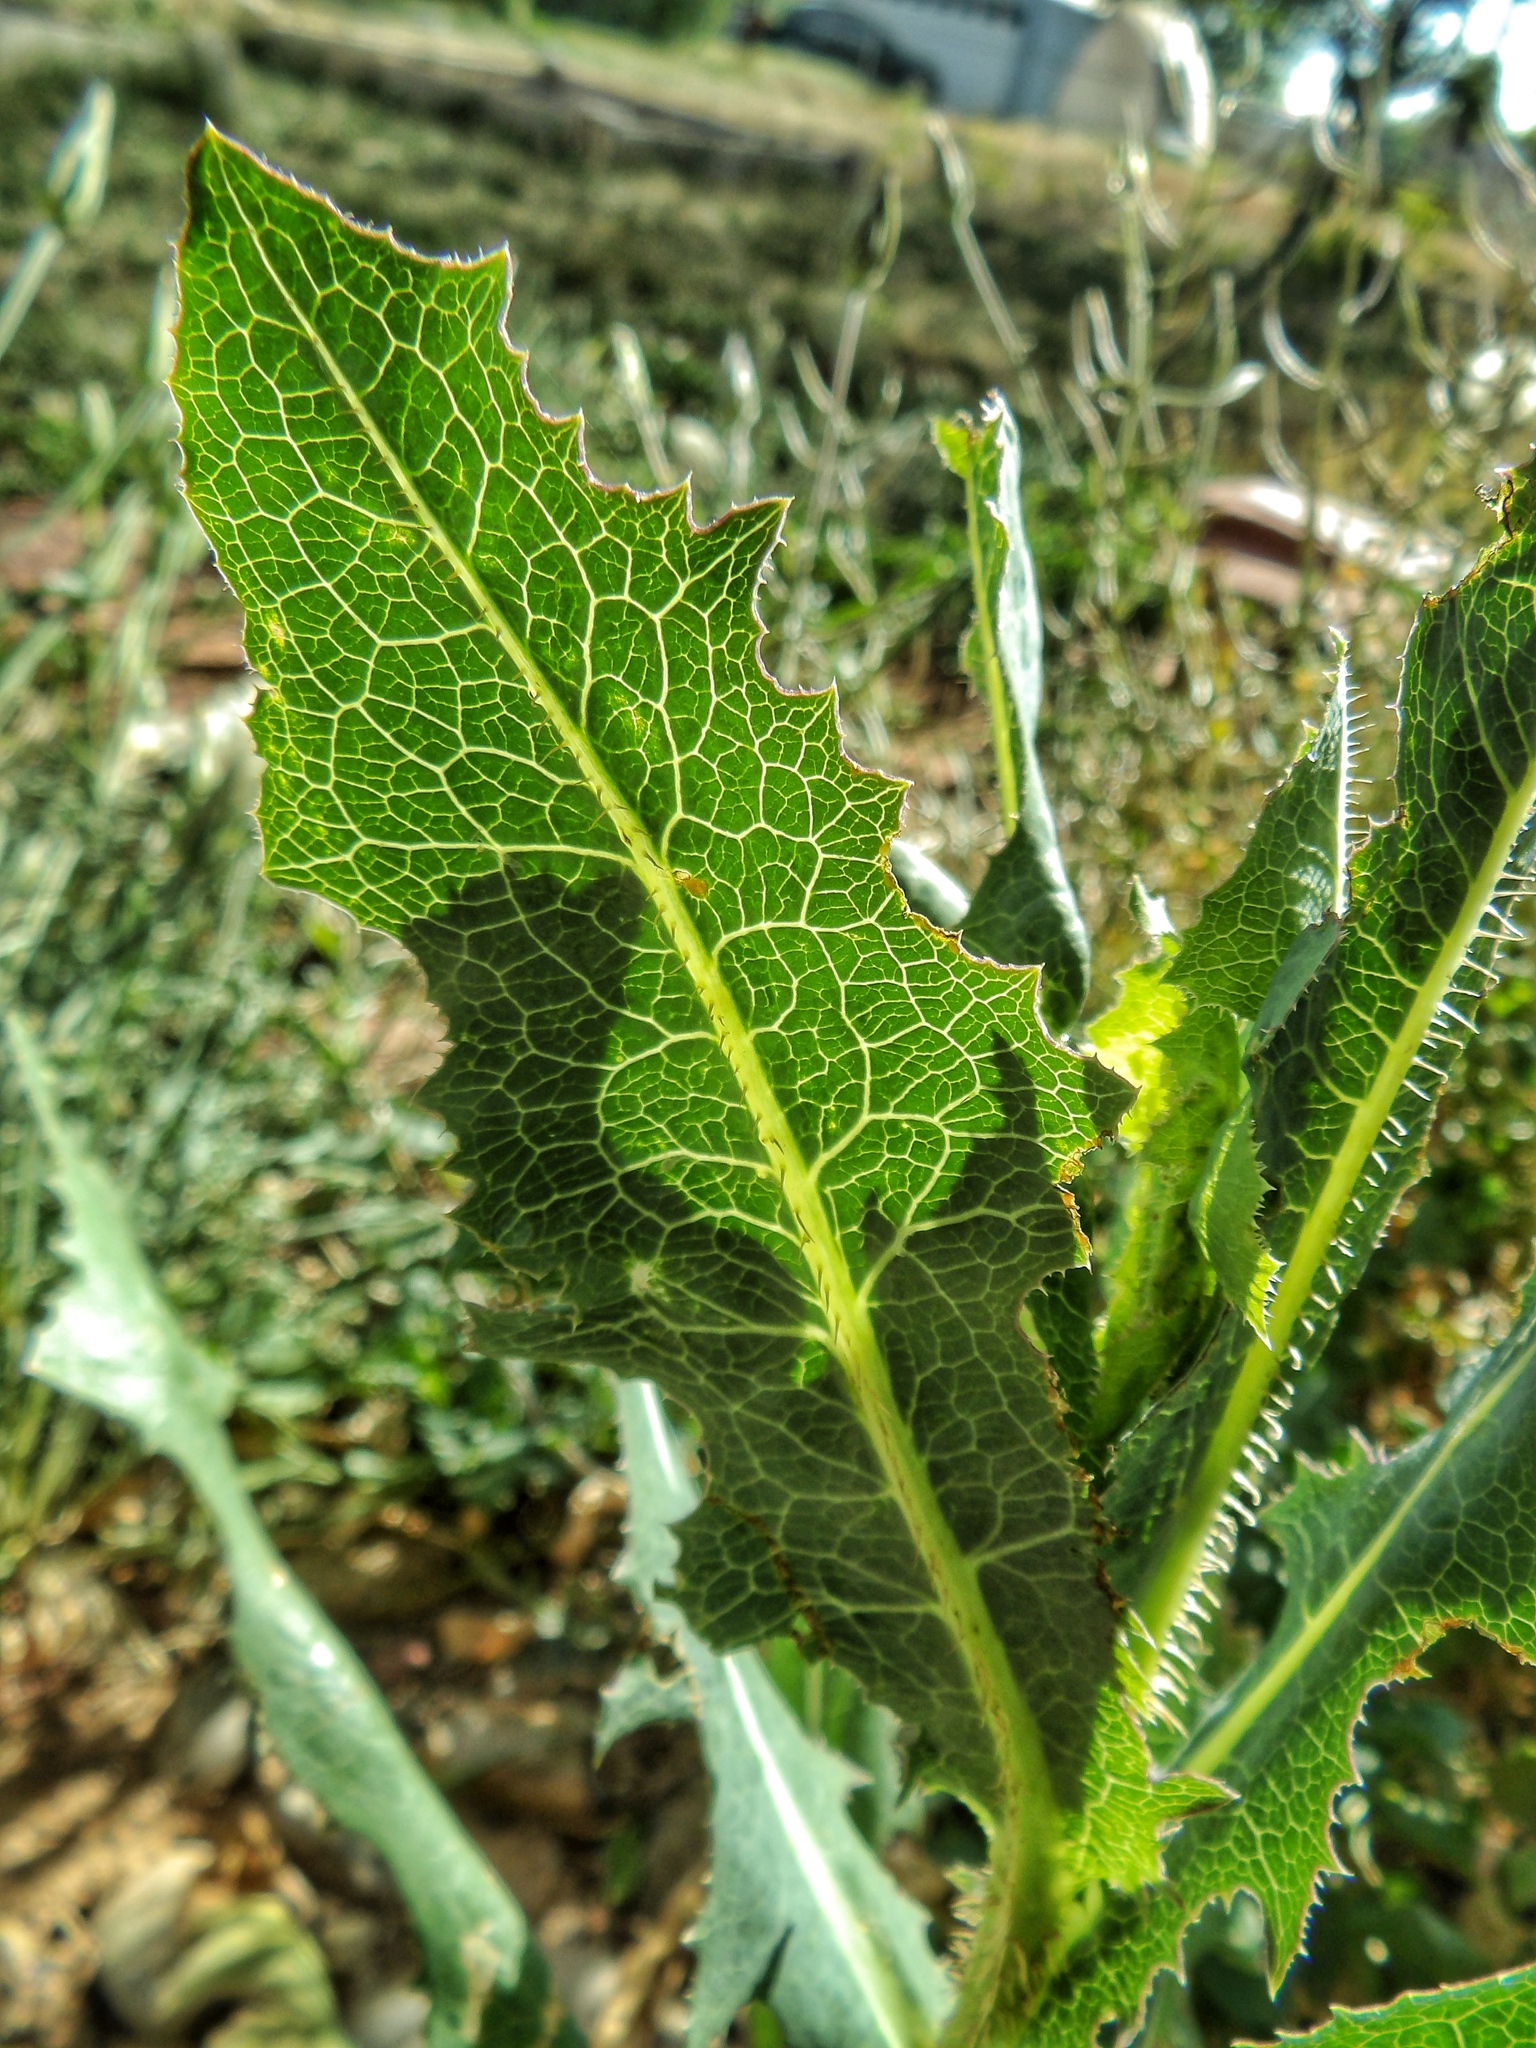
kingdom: Plantae
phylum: Tracheophyta
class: Magnoliopsida
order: Asterales
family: Asteraceae
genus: Lactuca
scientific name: Lactuca serriola
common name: Prickly lettuce
